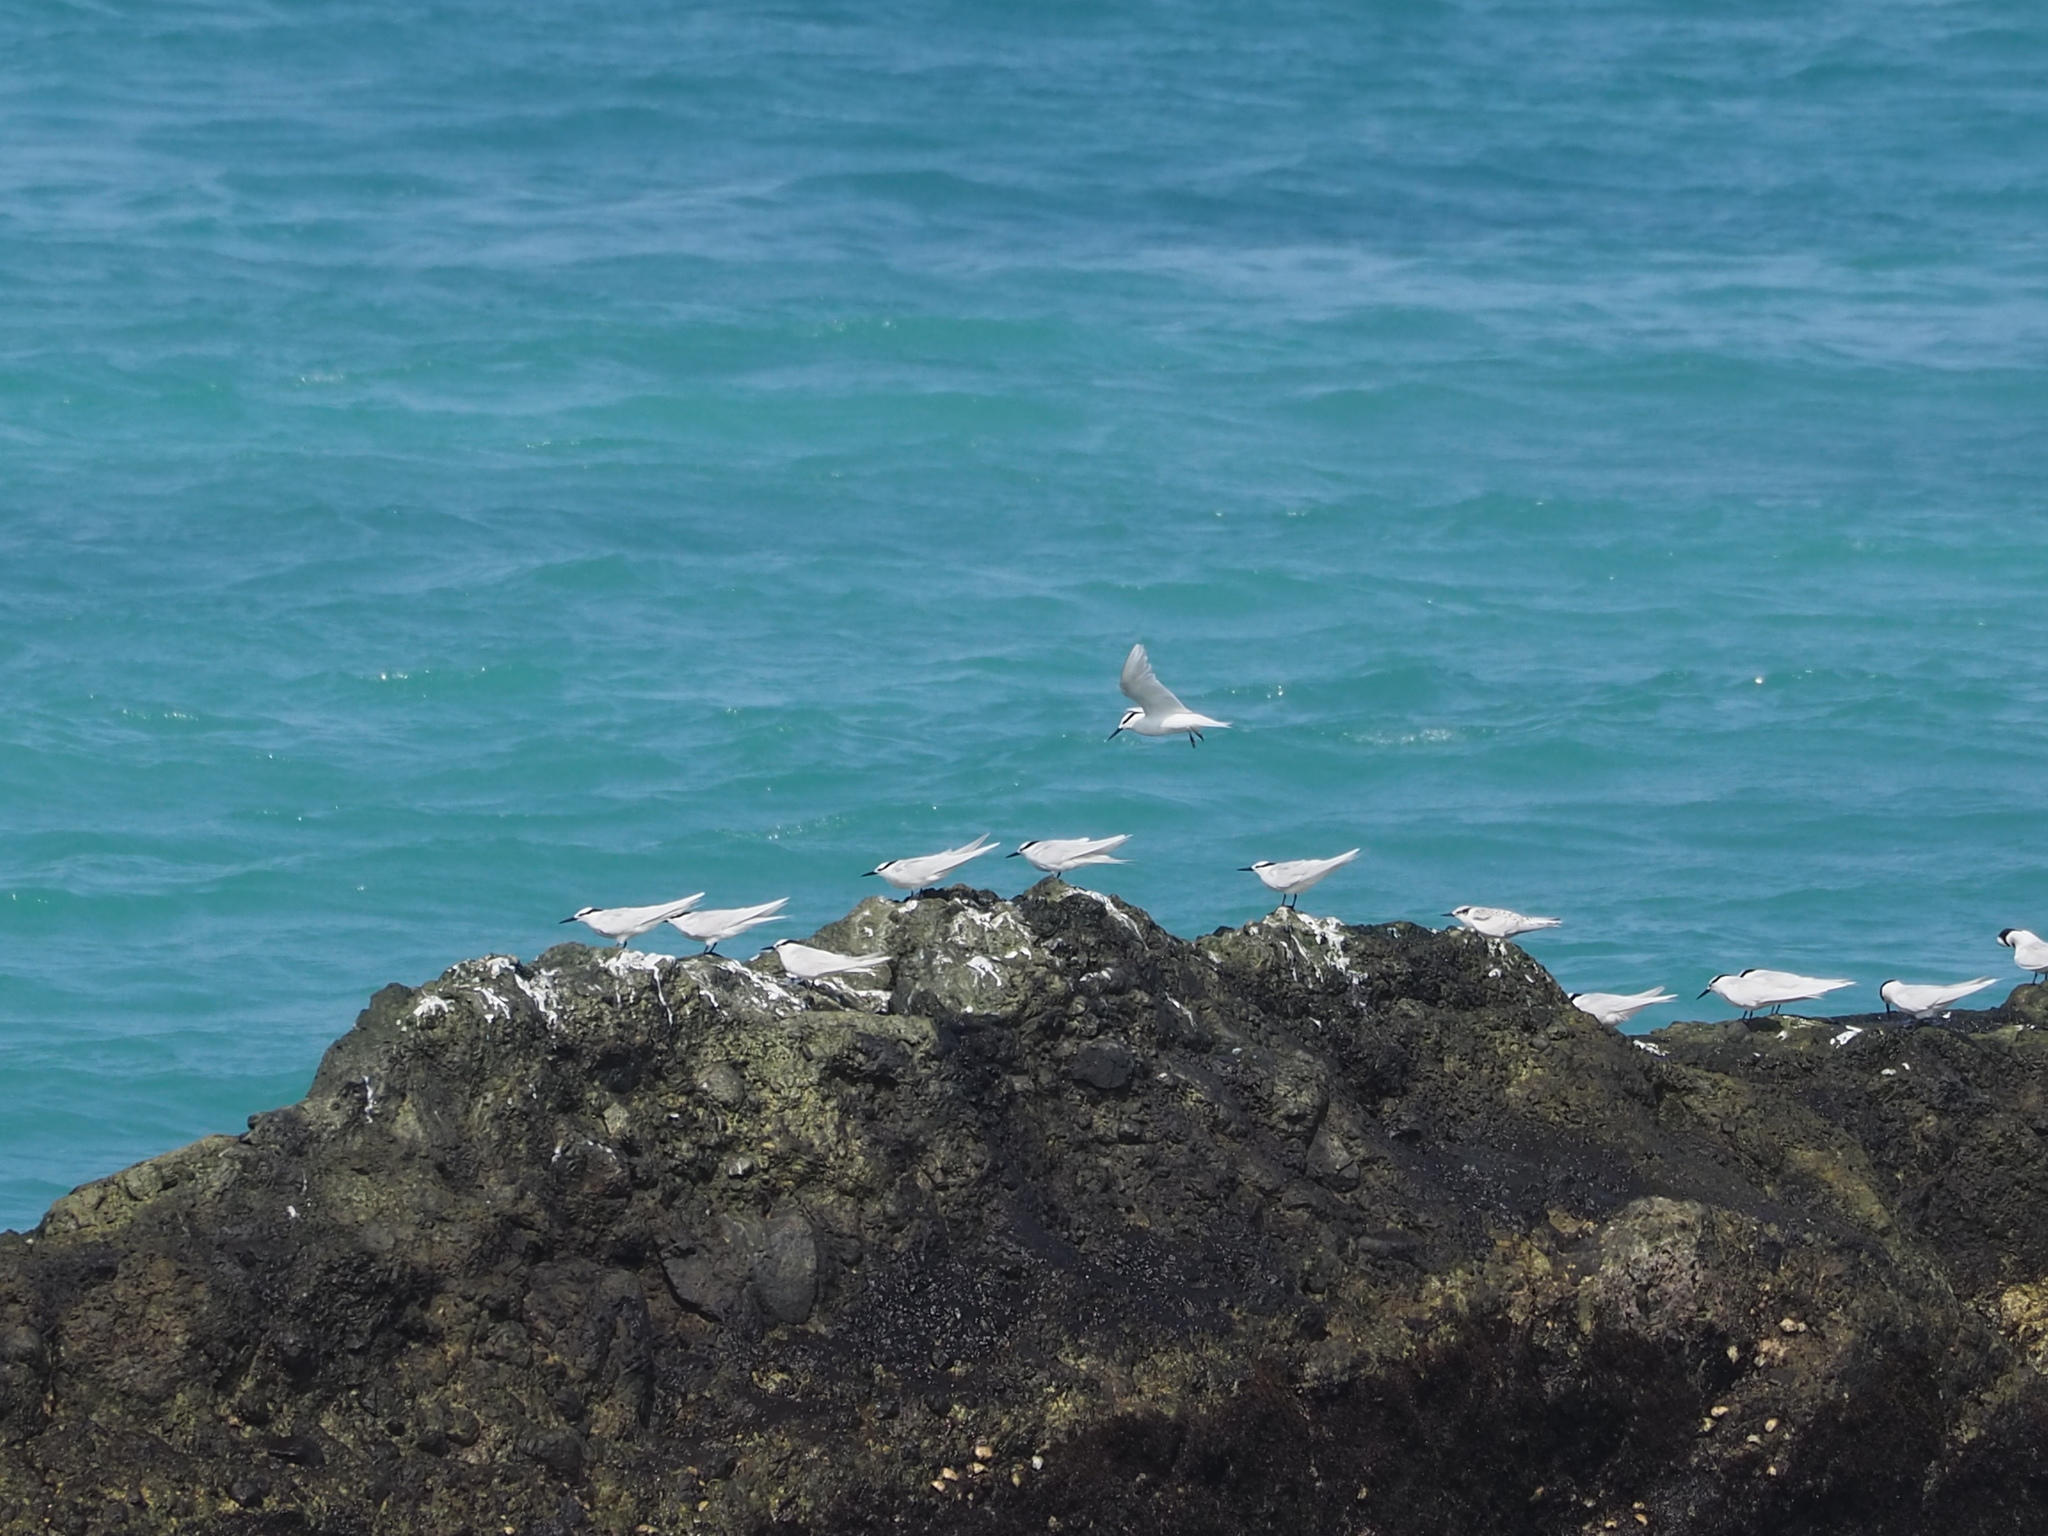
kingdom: Animalia
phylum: Chordata
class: Aves
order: Charadriiformes
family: Laridae
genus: Sterna
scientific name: Sterna sumatrana
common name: Black-naped tern
